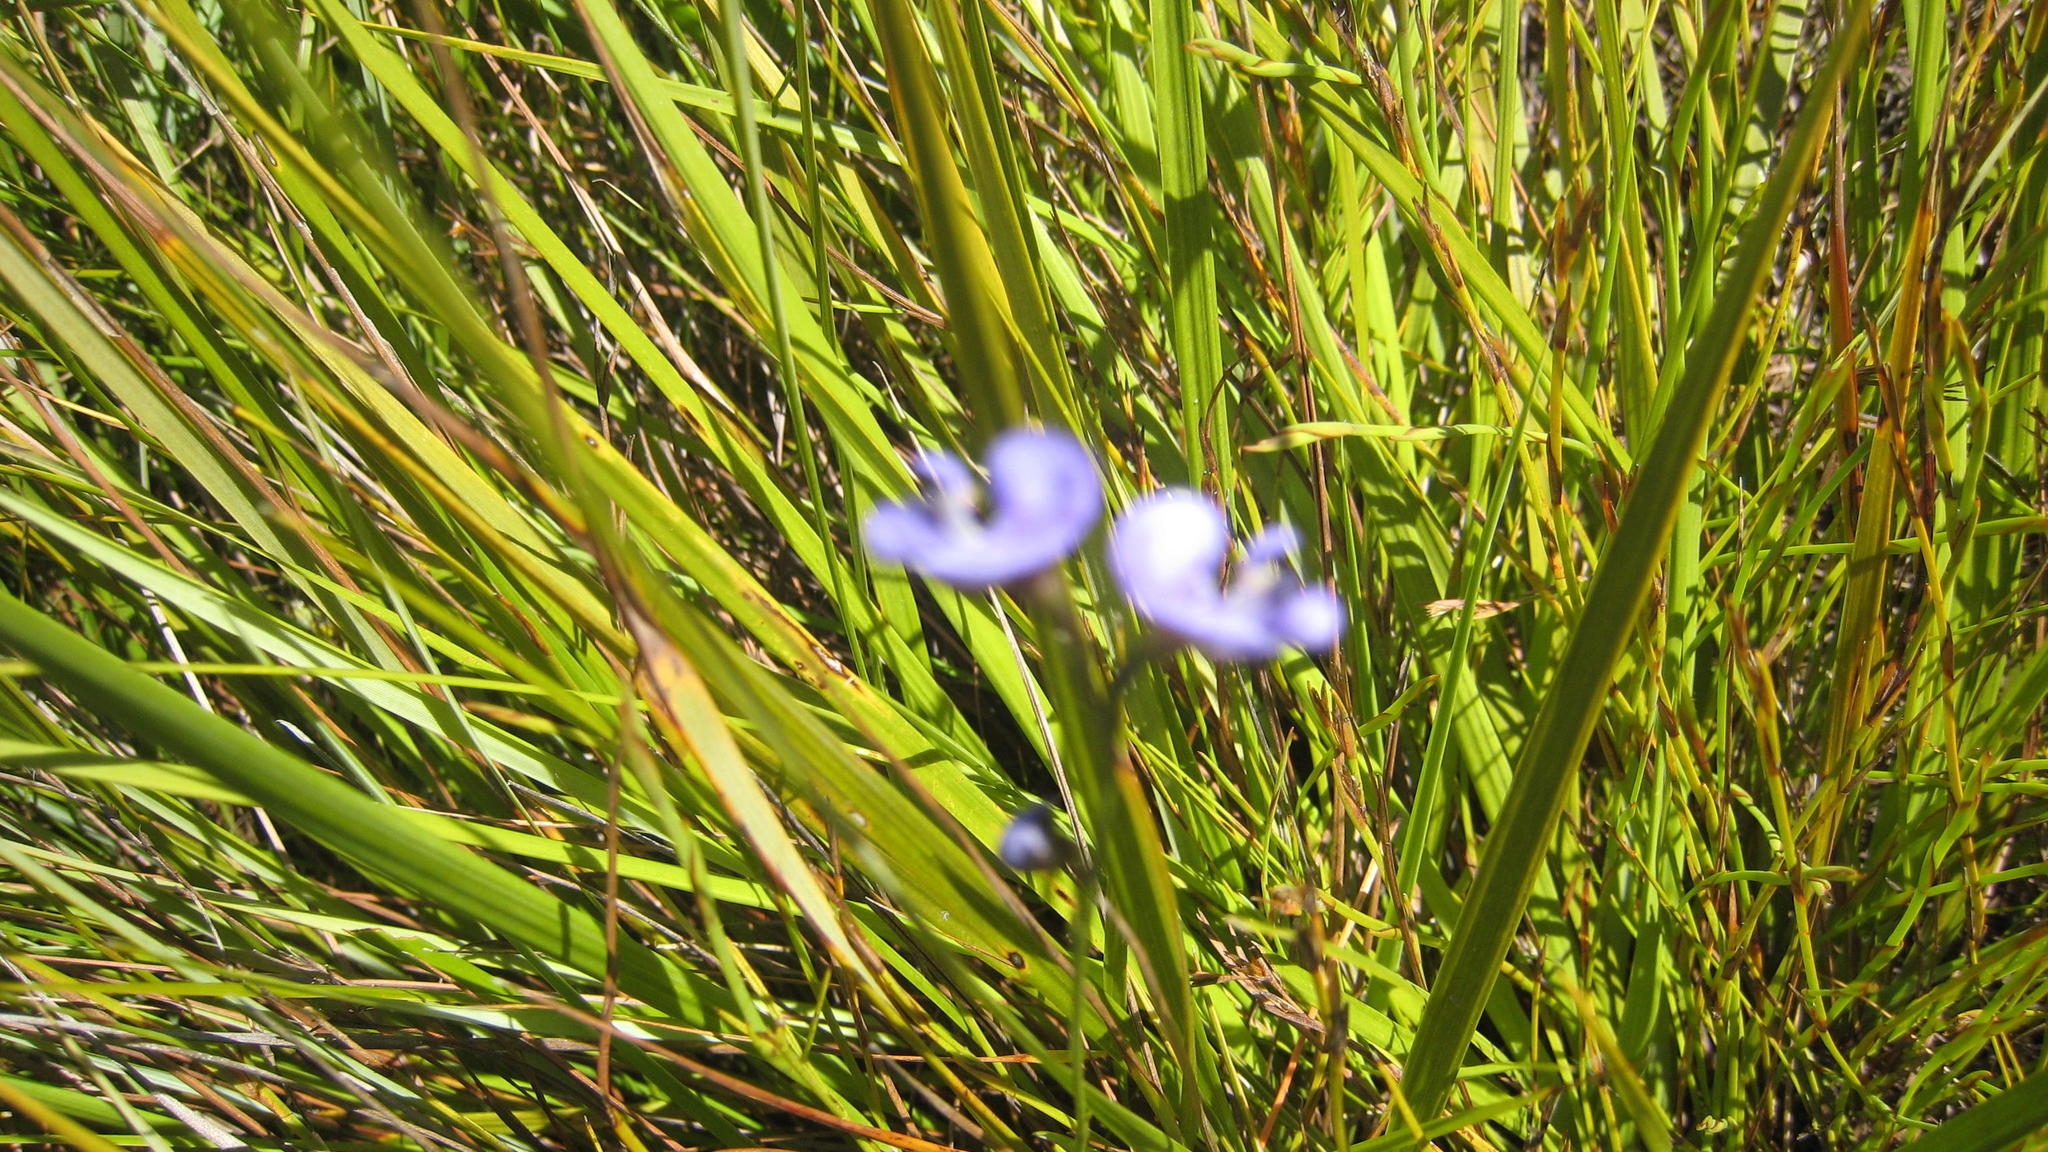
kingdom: Plantae
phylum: Tracheophyta
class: Magnoliopsida
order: Fabales
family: Fabaceae
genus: Psoralea
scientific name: Psoralea trullata
